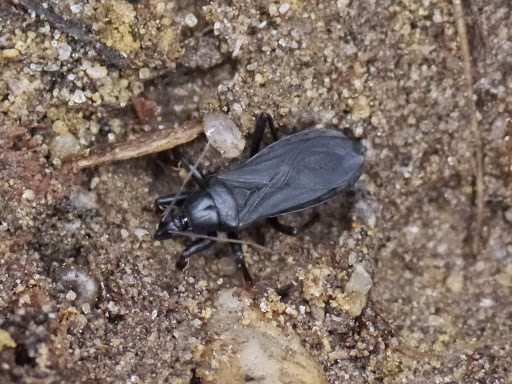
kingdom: Animalia
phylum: Arthropoda
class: Insecta
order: Hemiptera
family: Reduviidae
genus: Melanolestes
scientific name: Melanolestes picipes
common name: Assassin bug
